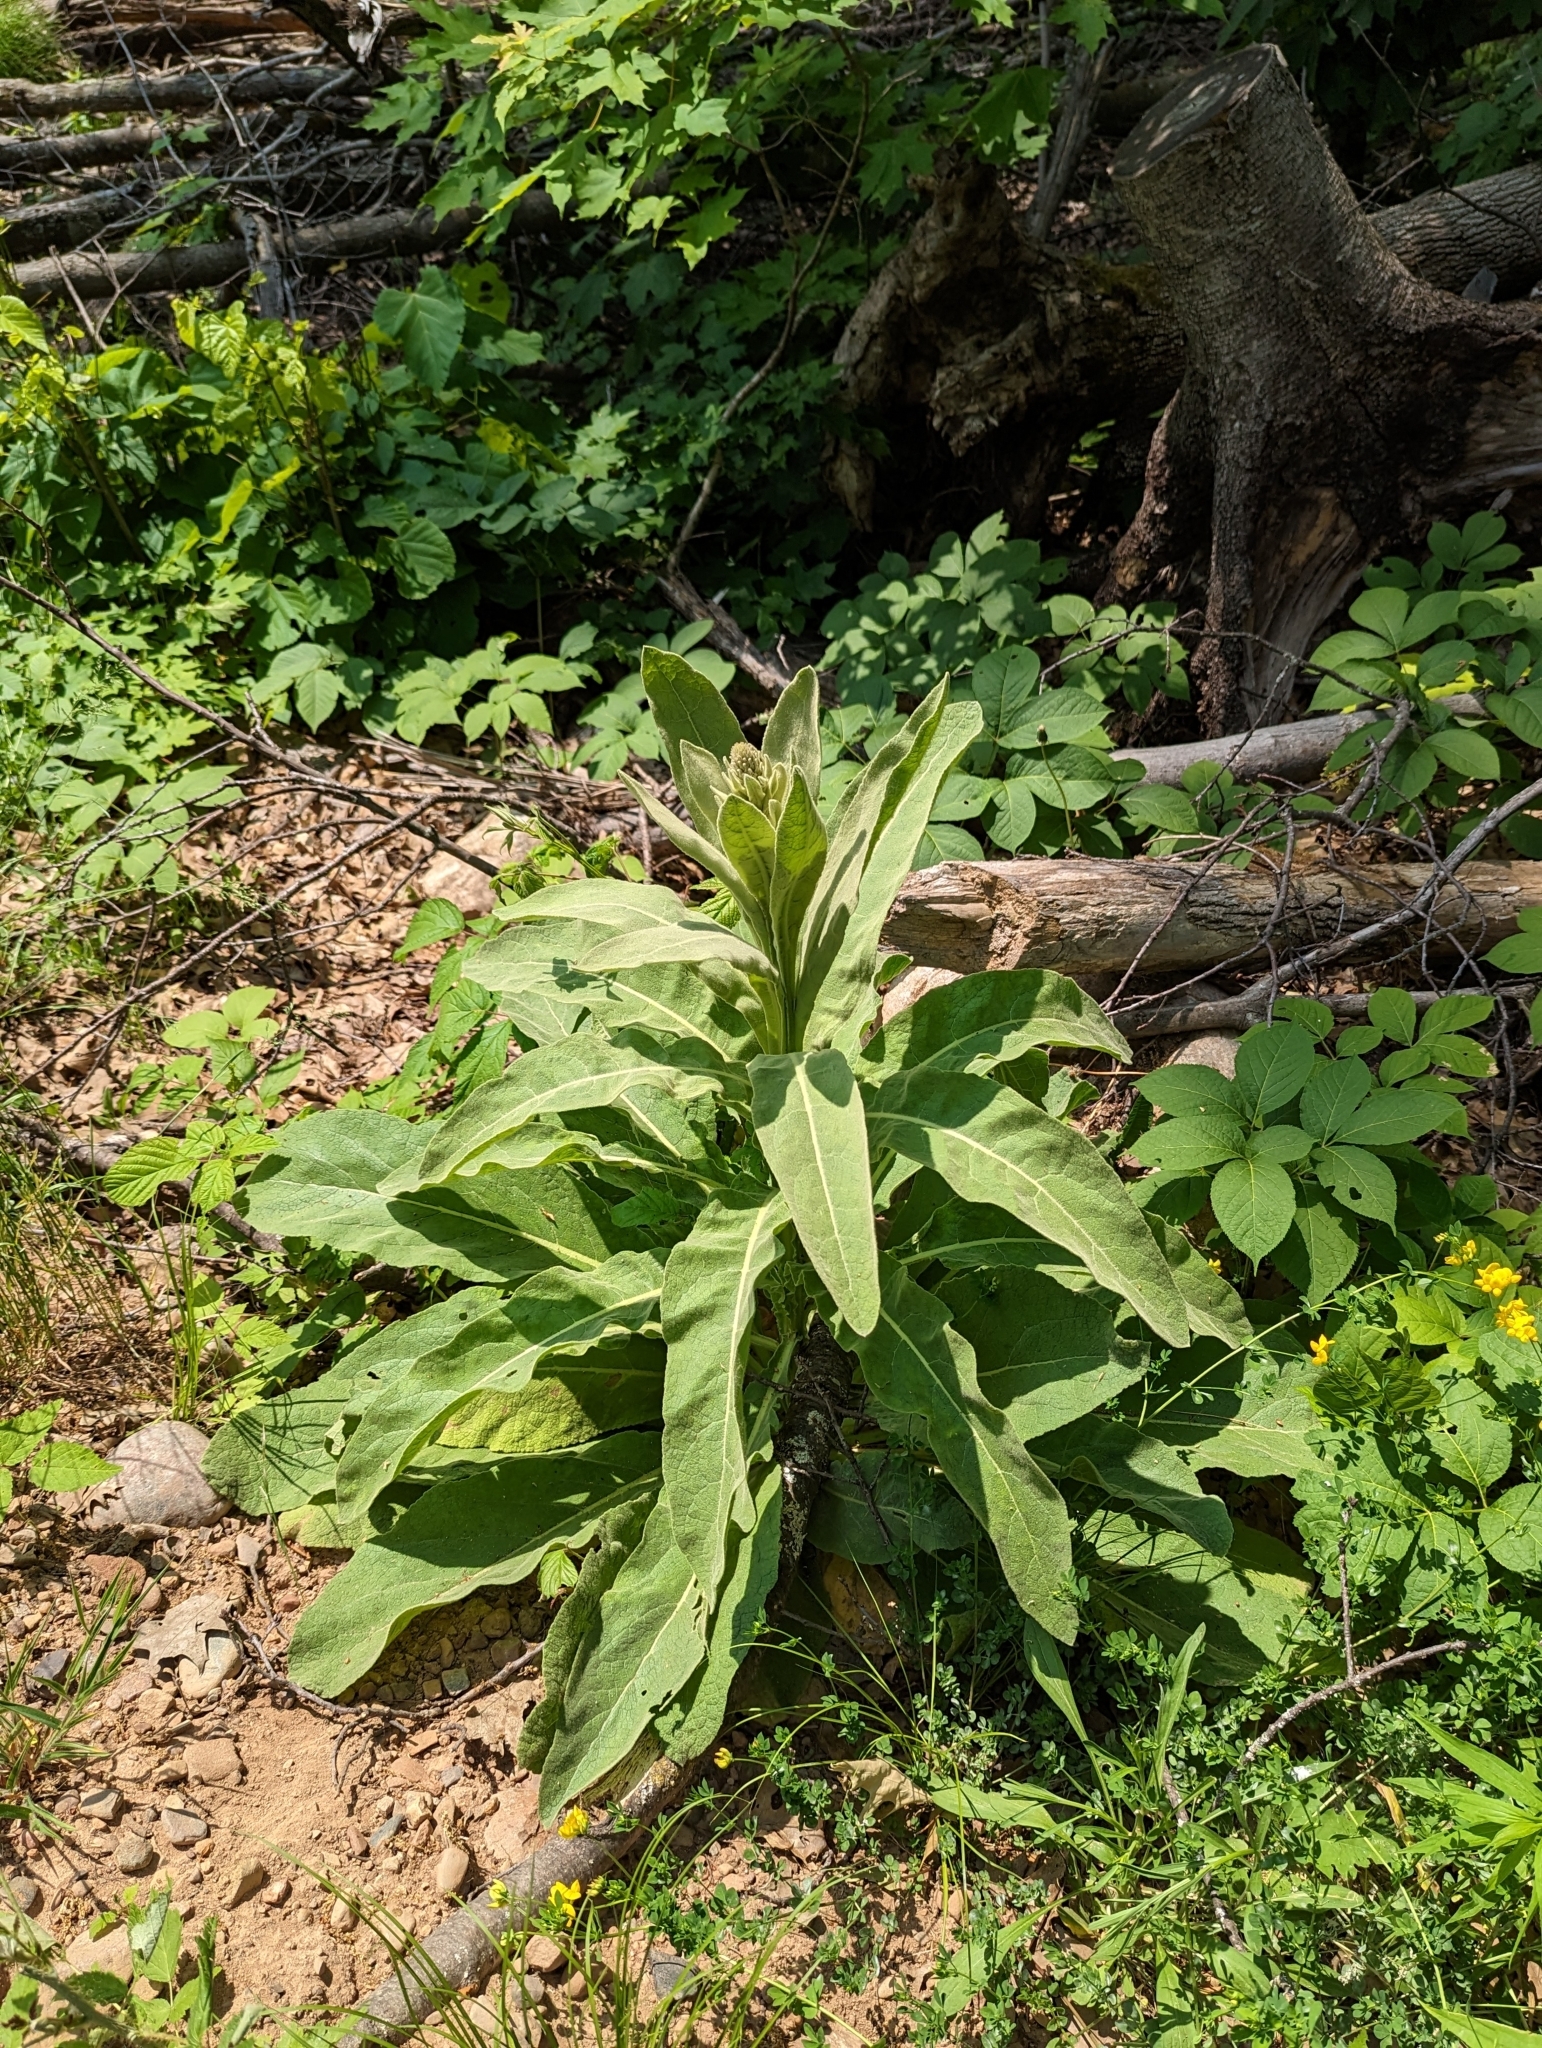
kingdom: Plantae
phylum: Tracheophyta
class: Magnoliopsida
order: Lamiales
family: Scrophulariaceae
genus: Verbascum
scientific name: Verbascum thapsus
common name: Common mullein
